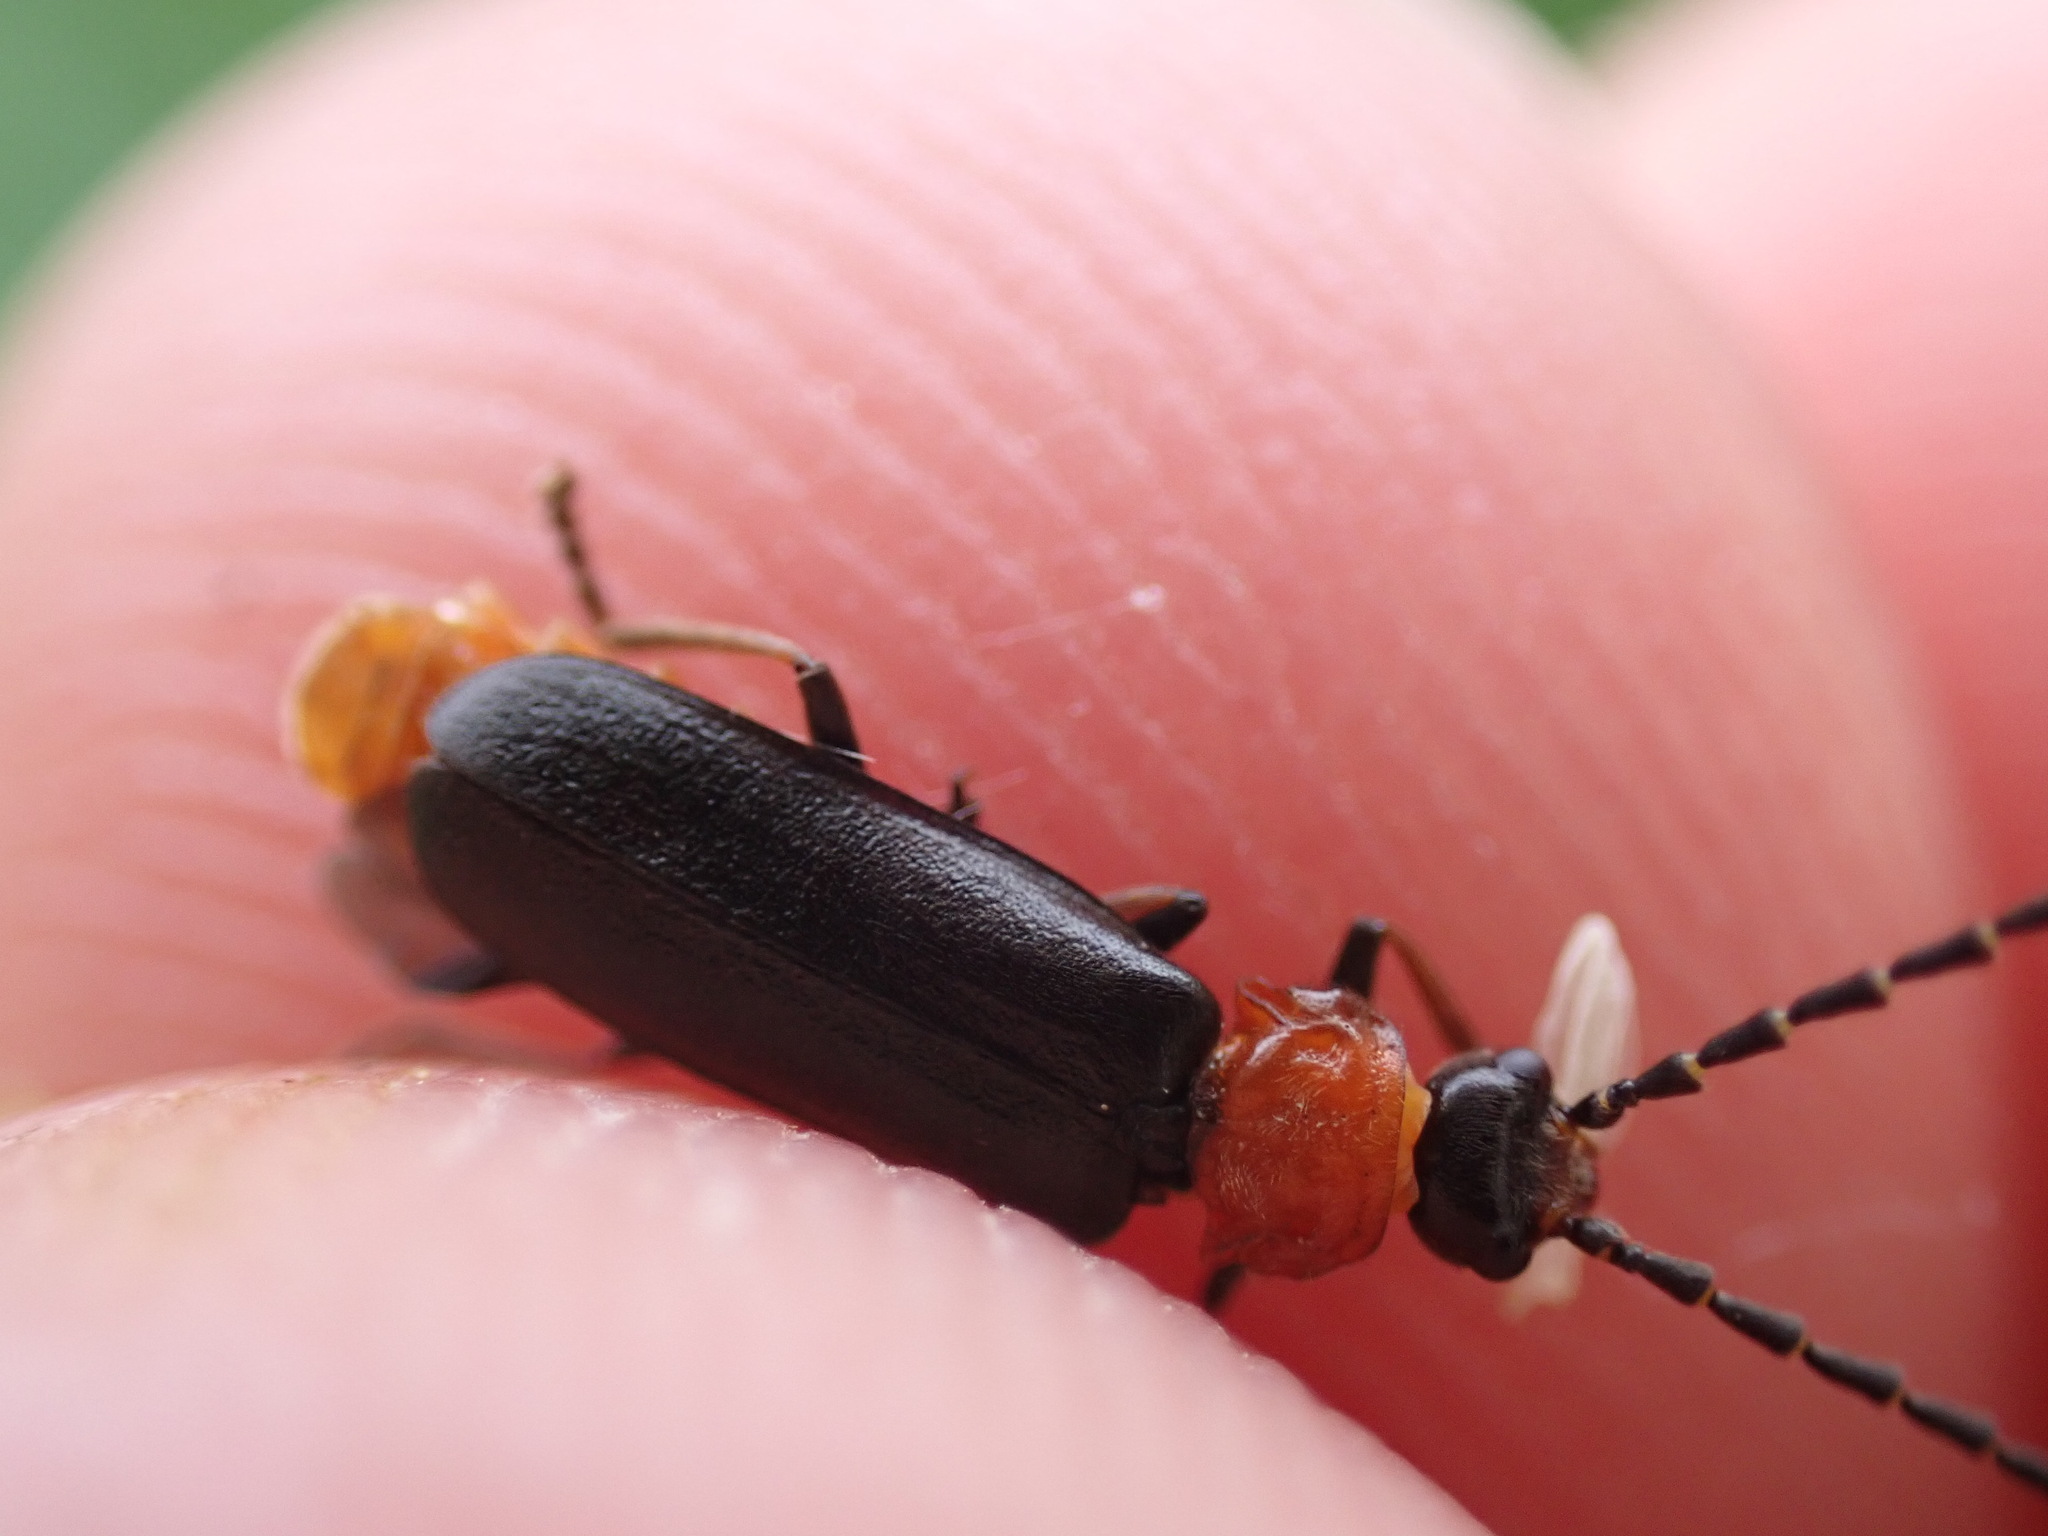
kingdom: Animalia
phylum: Arthropoda
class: Insecta
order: Coleoptera
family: Cantharidae
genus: Crudosilis
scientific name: Crudosilis ruficollis
